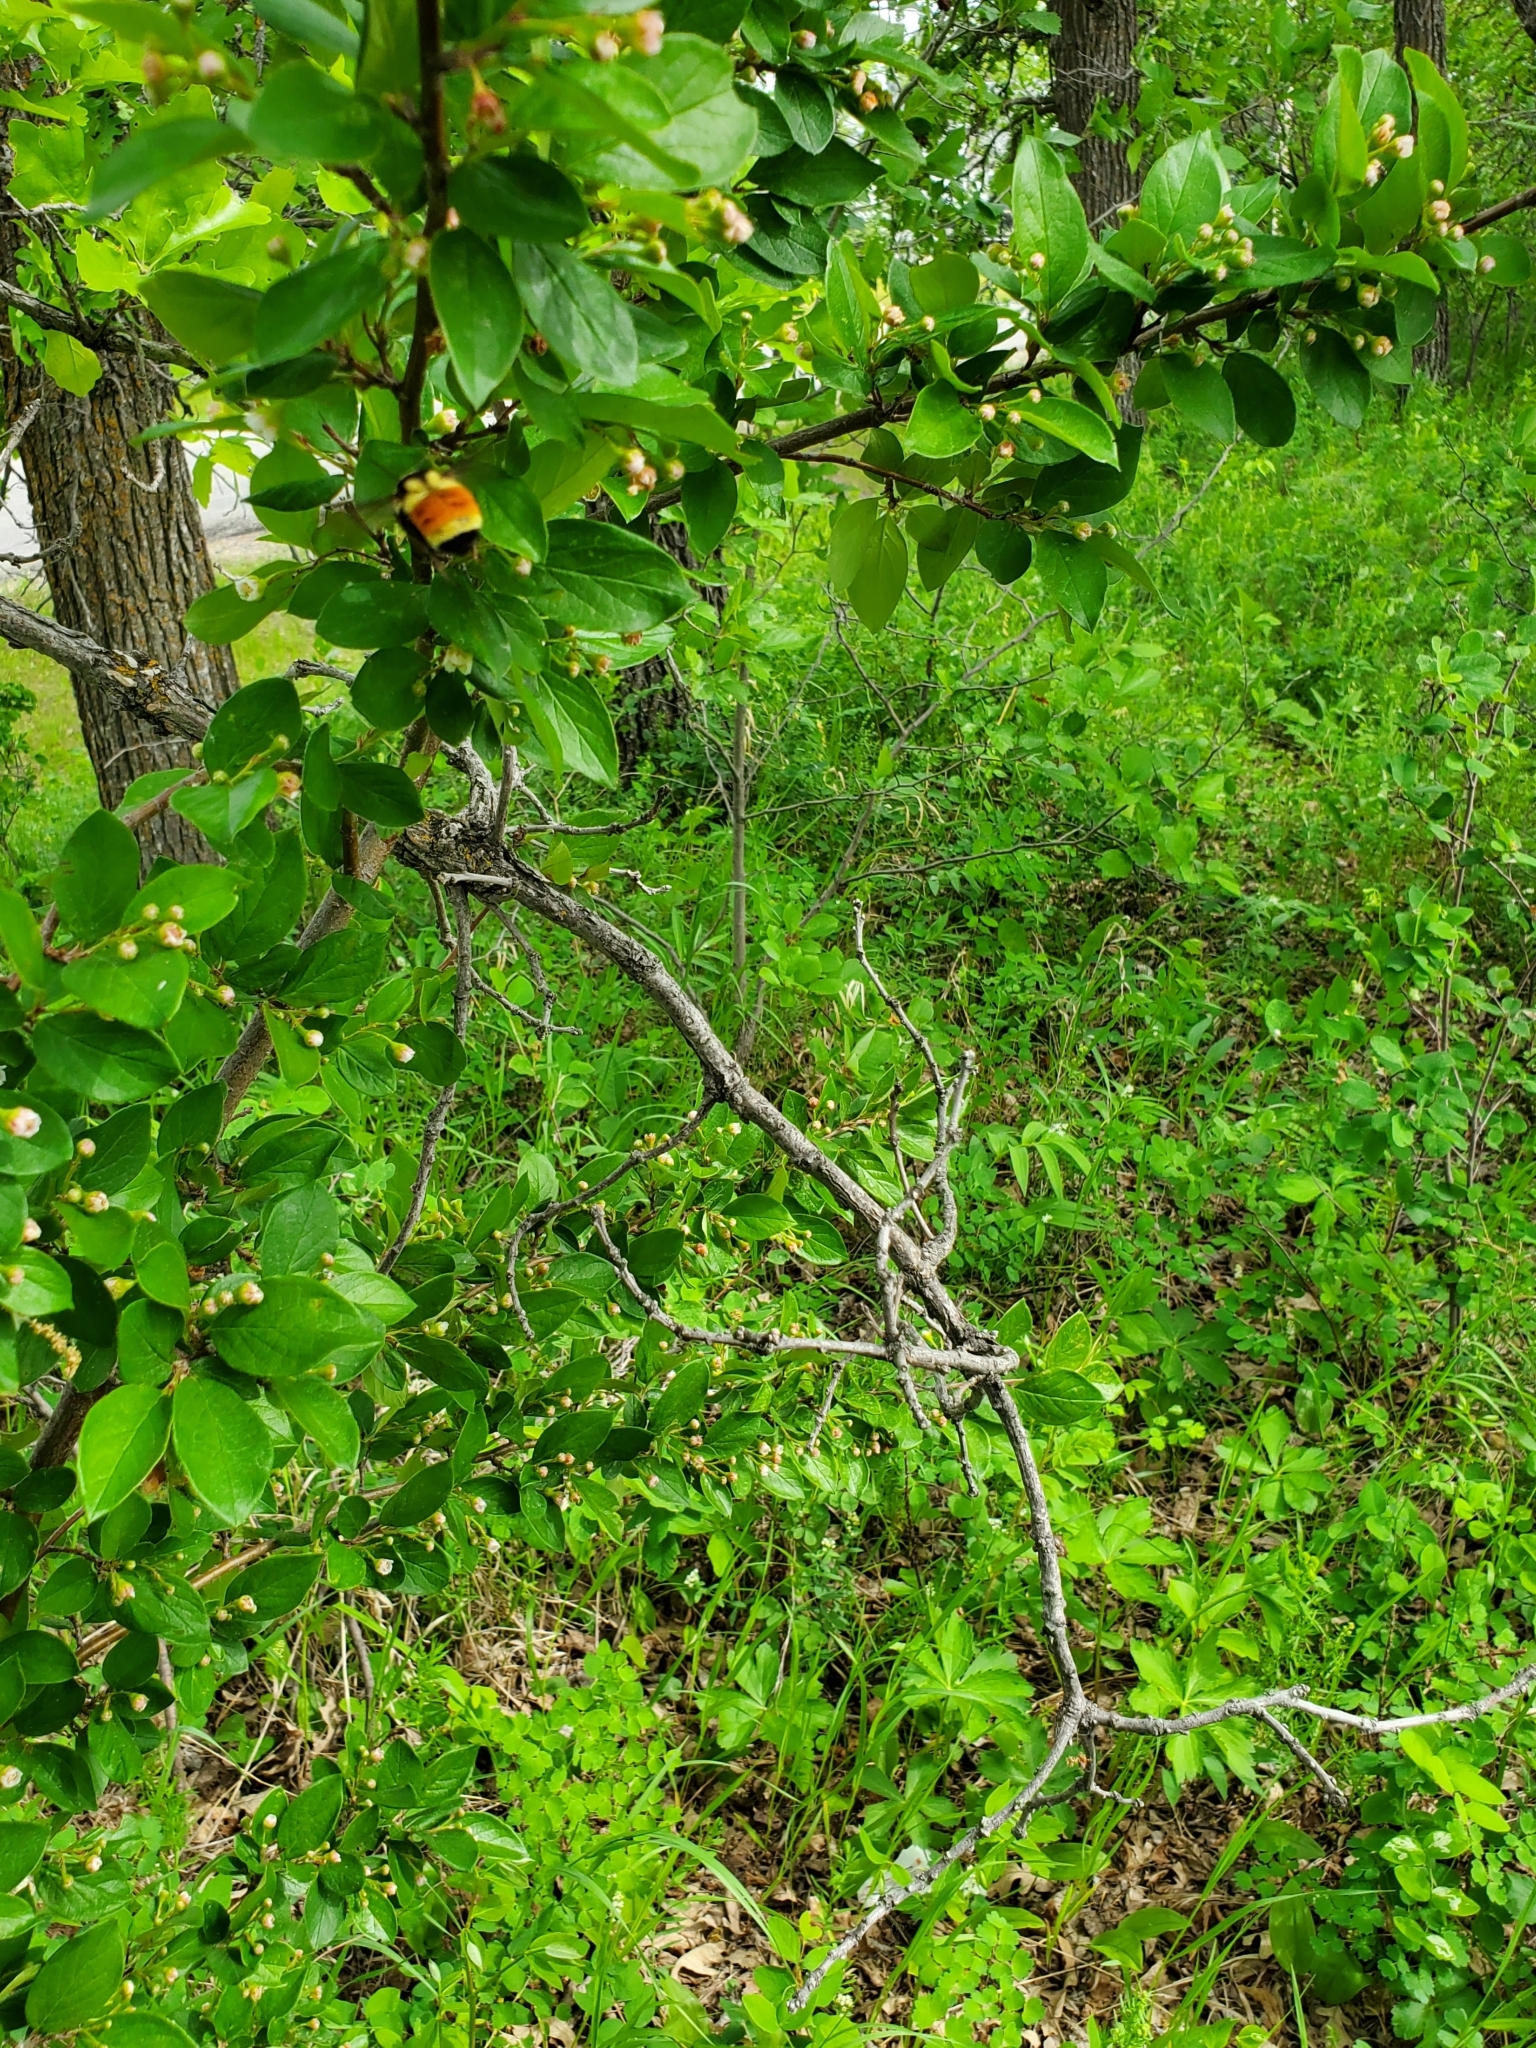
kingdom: Animalia
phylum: Arthropoda
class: Insecta
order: Hymenoptera
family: Apidae
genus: Bombus
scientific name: Bombus ternarius
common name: Tri-colored bumble bee
